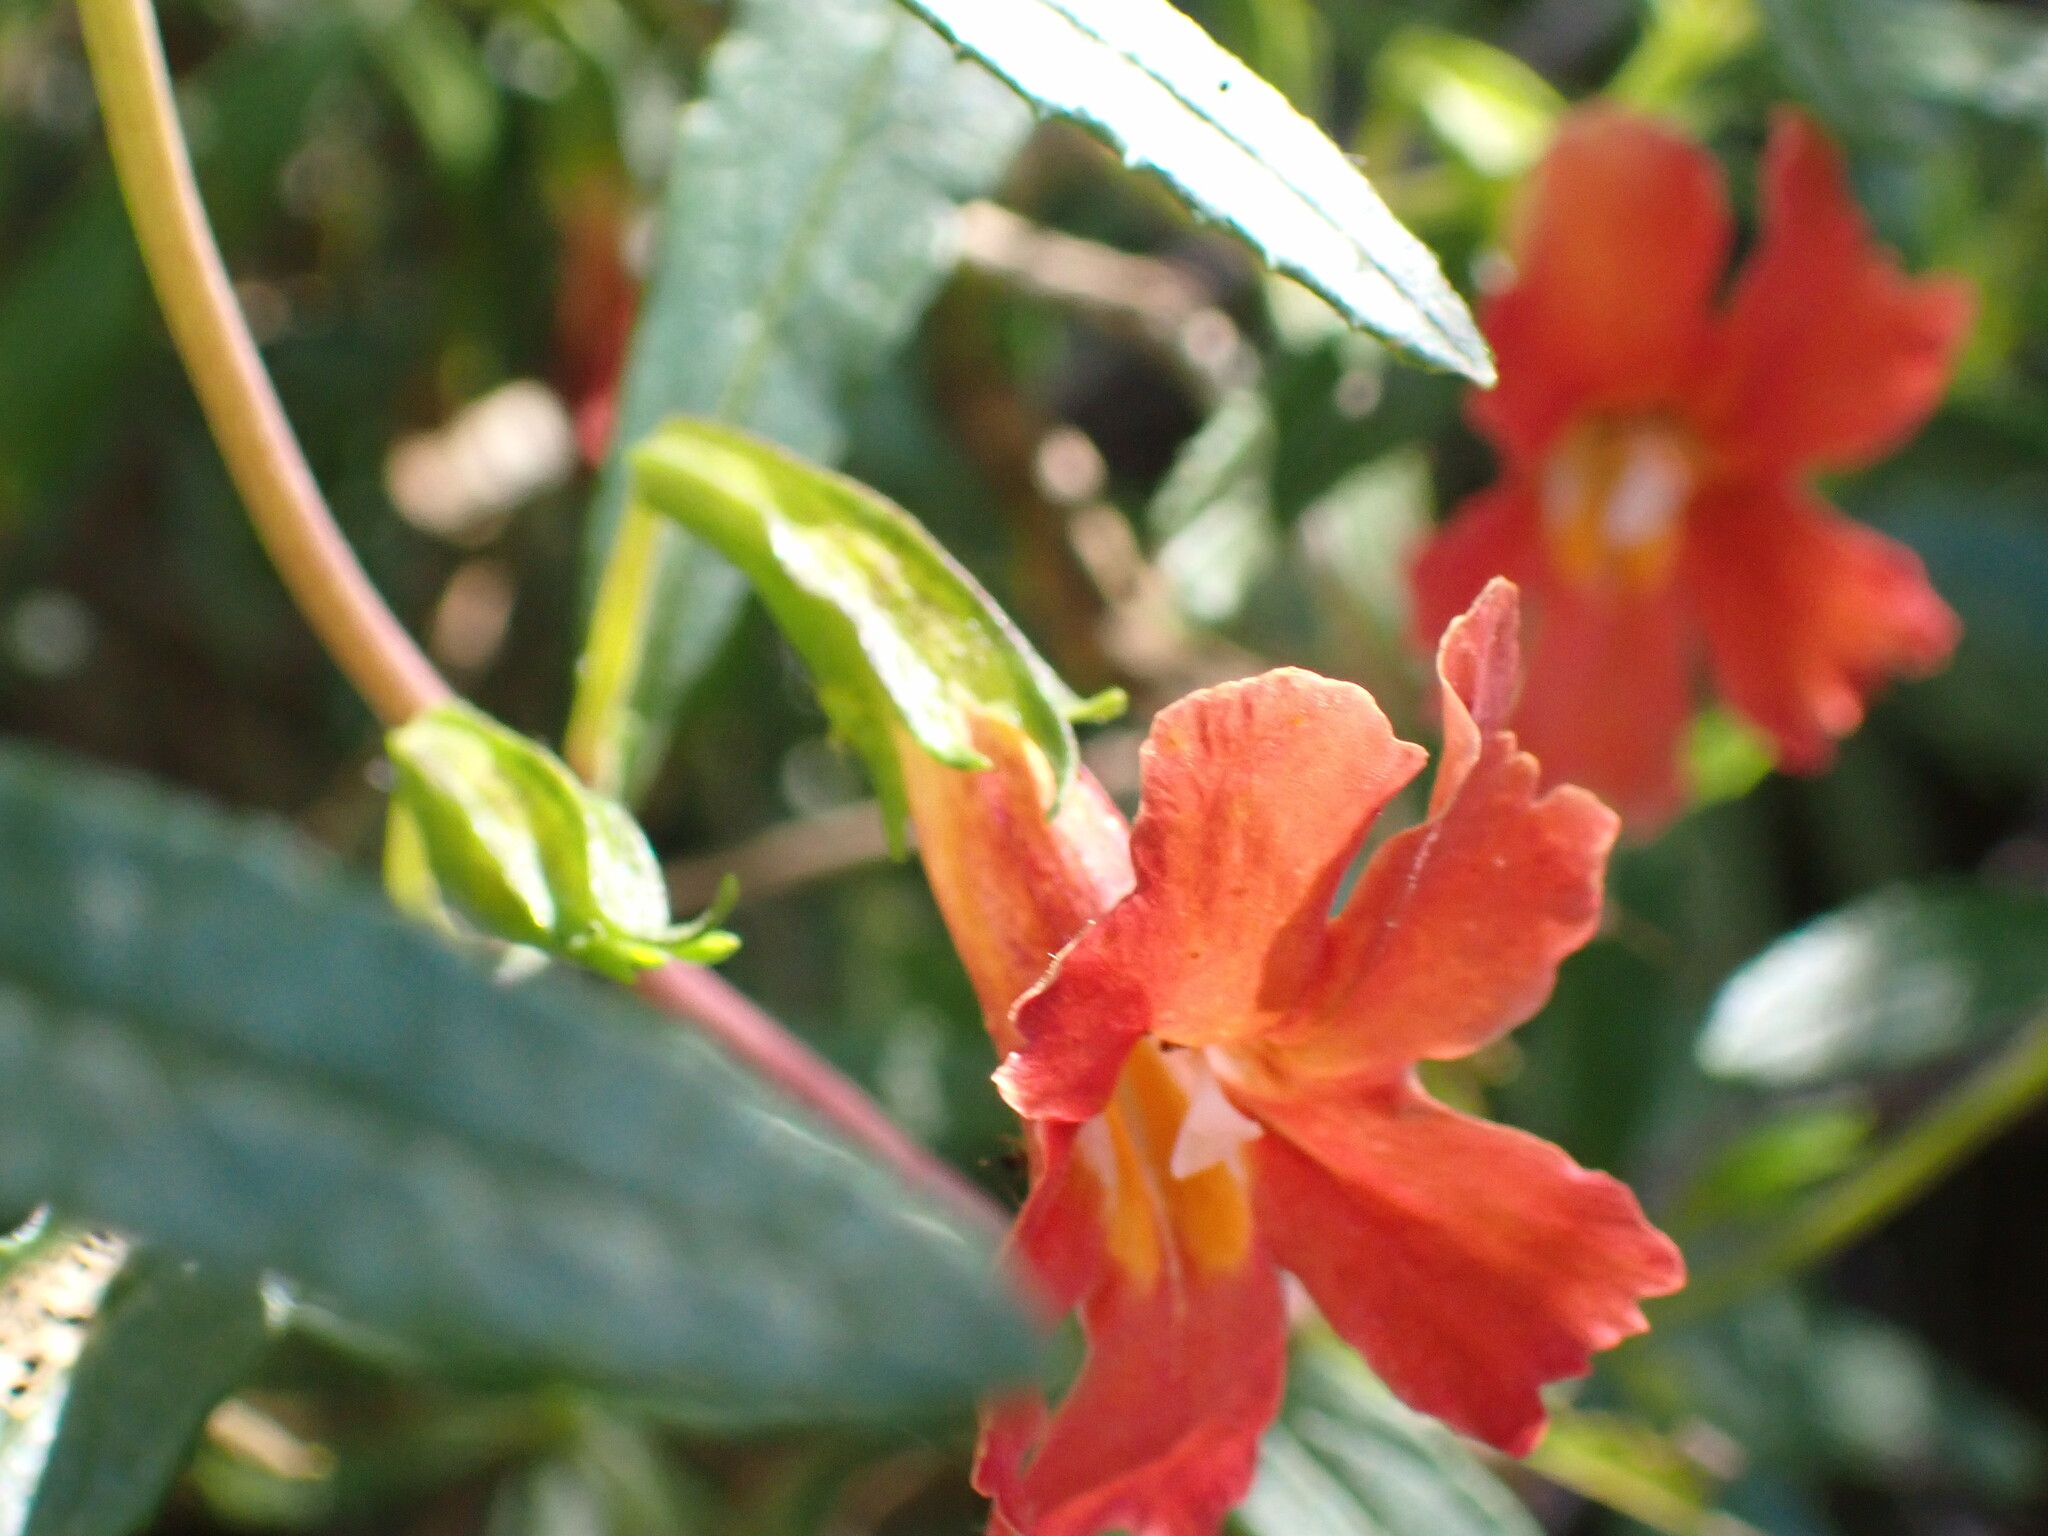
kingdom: Plantae
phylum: Tracheophyta
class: Magnoliopsida
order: Lamiales
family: Phrymaceae
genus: Diplacus
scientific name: Diplacus puniceus
